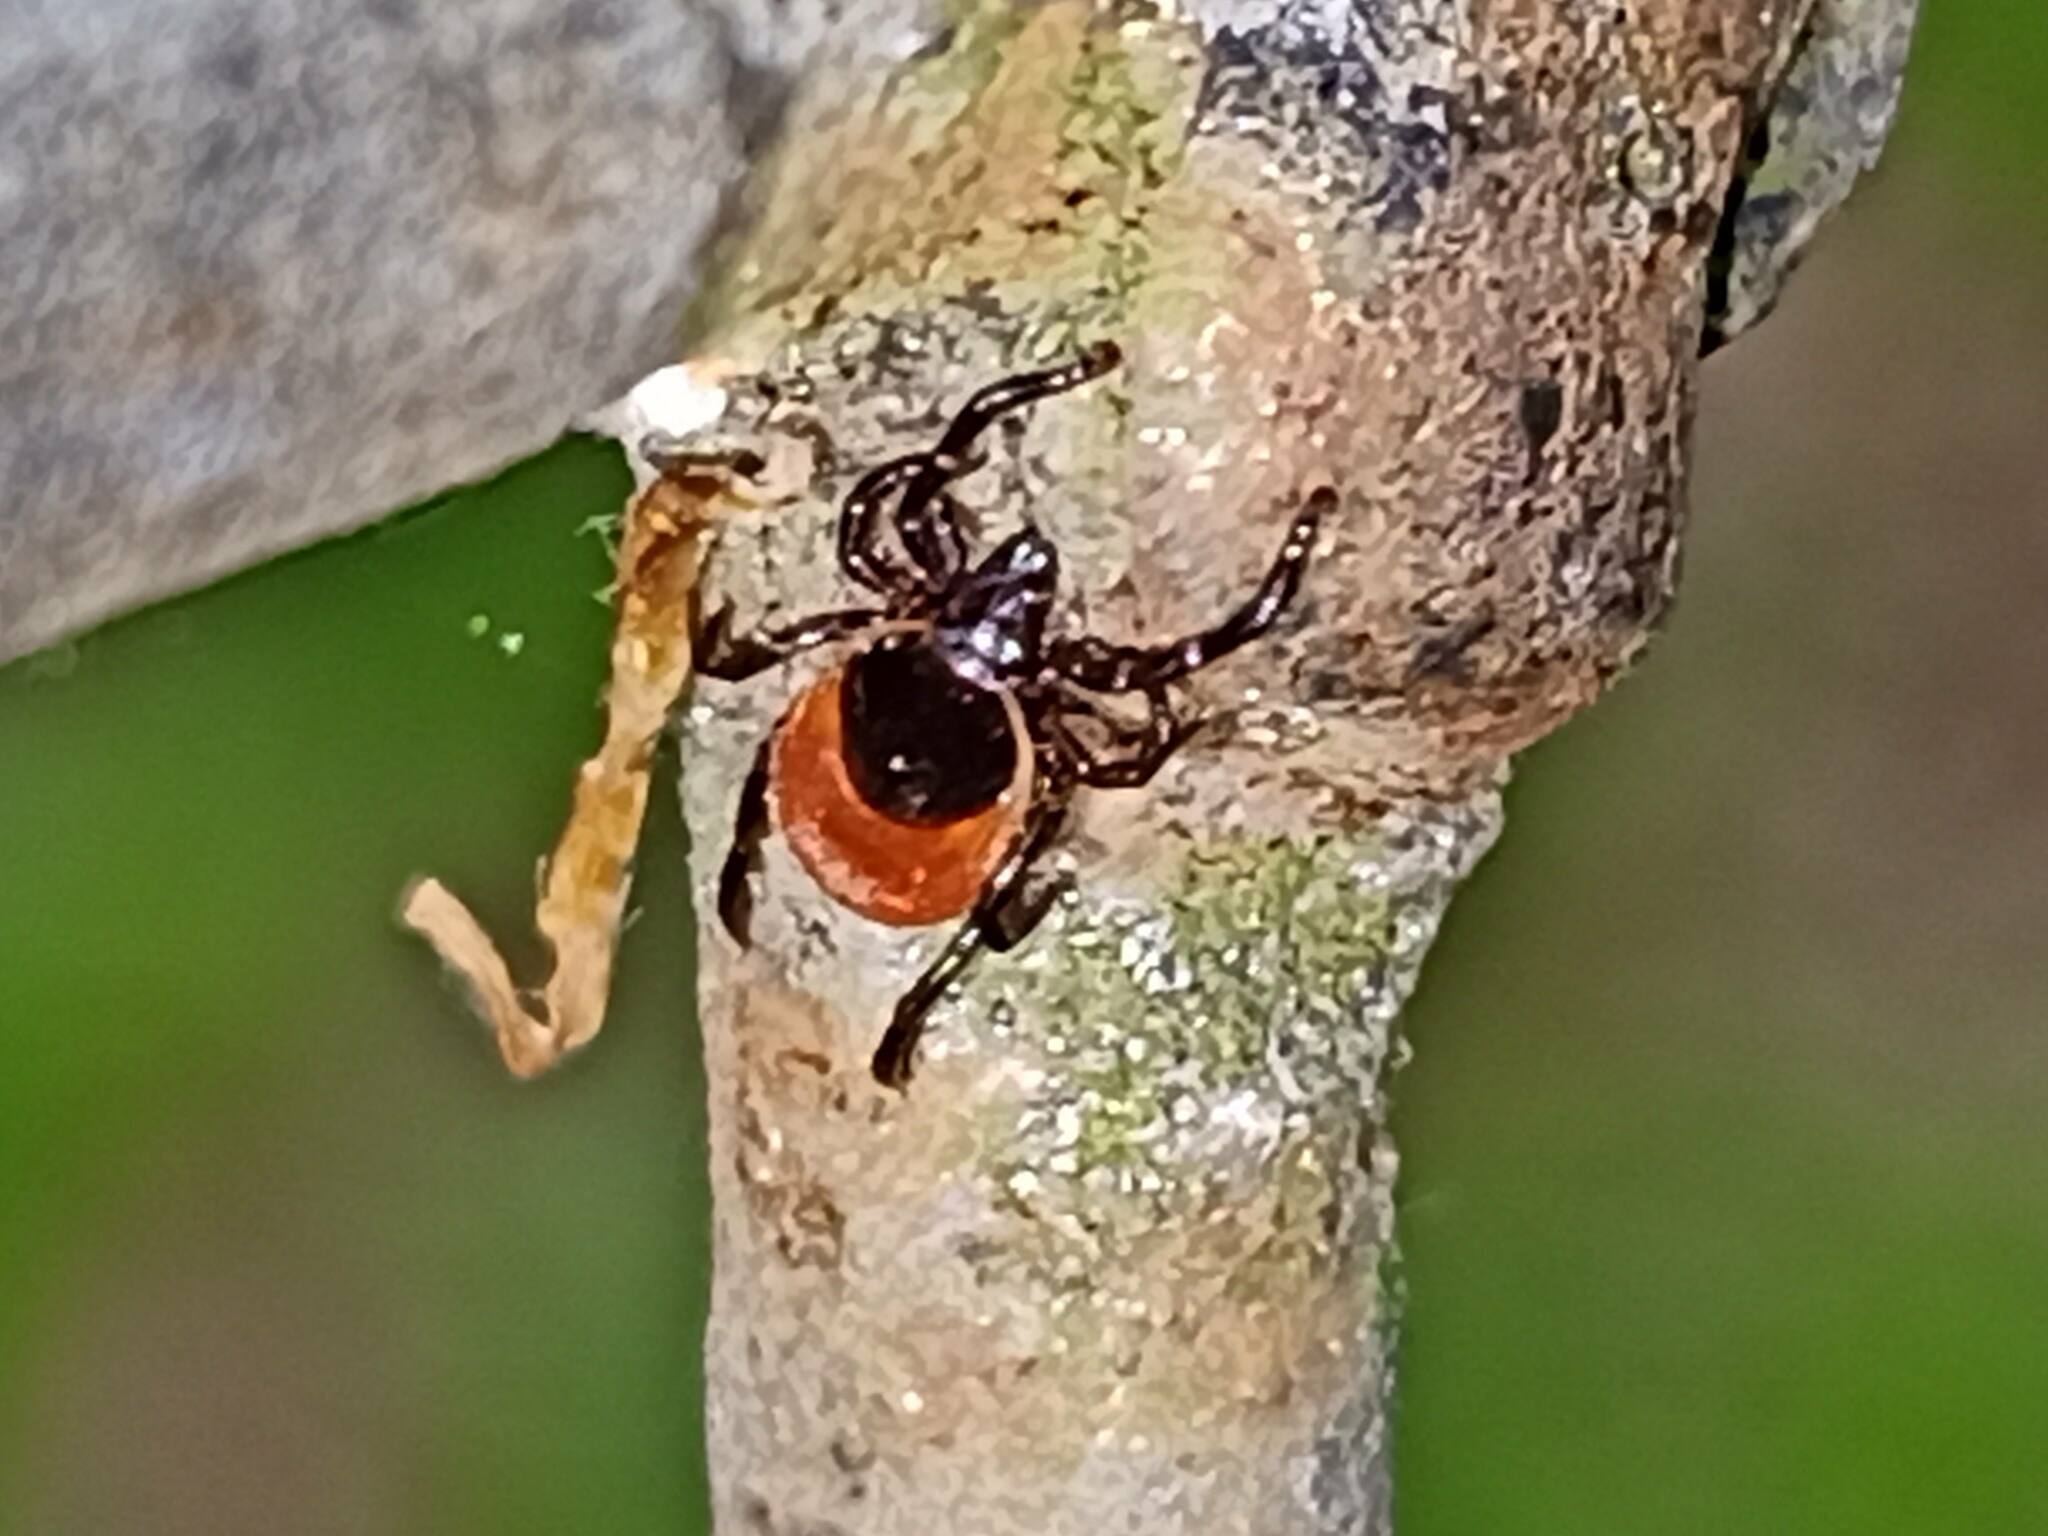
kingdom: Animalia
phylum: Arthropoda
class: Arachnida
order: Ixodida
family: Ixodidae
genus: Ixodes
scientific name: Ixodes ricinus
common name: Castor bean tick
